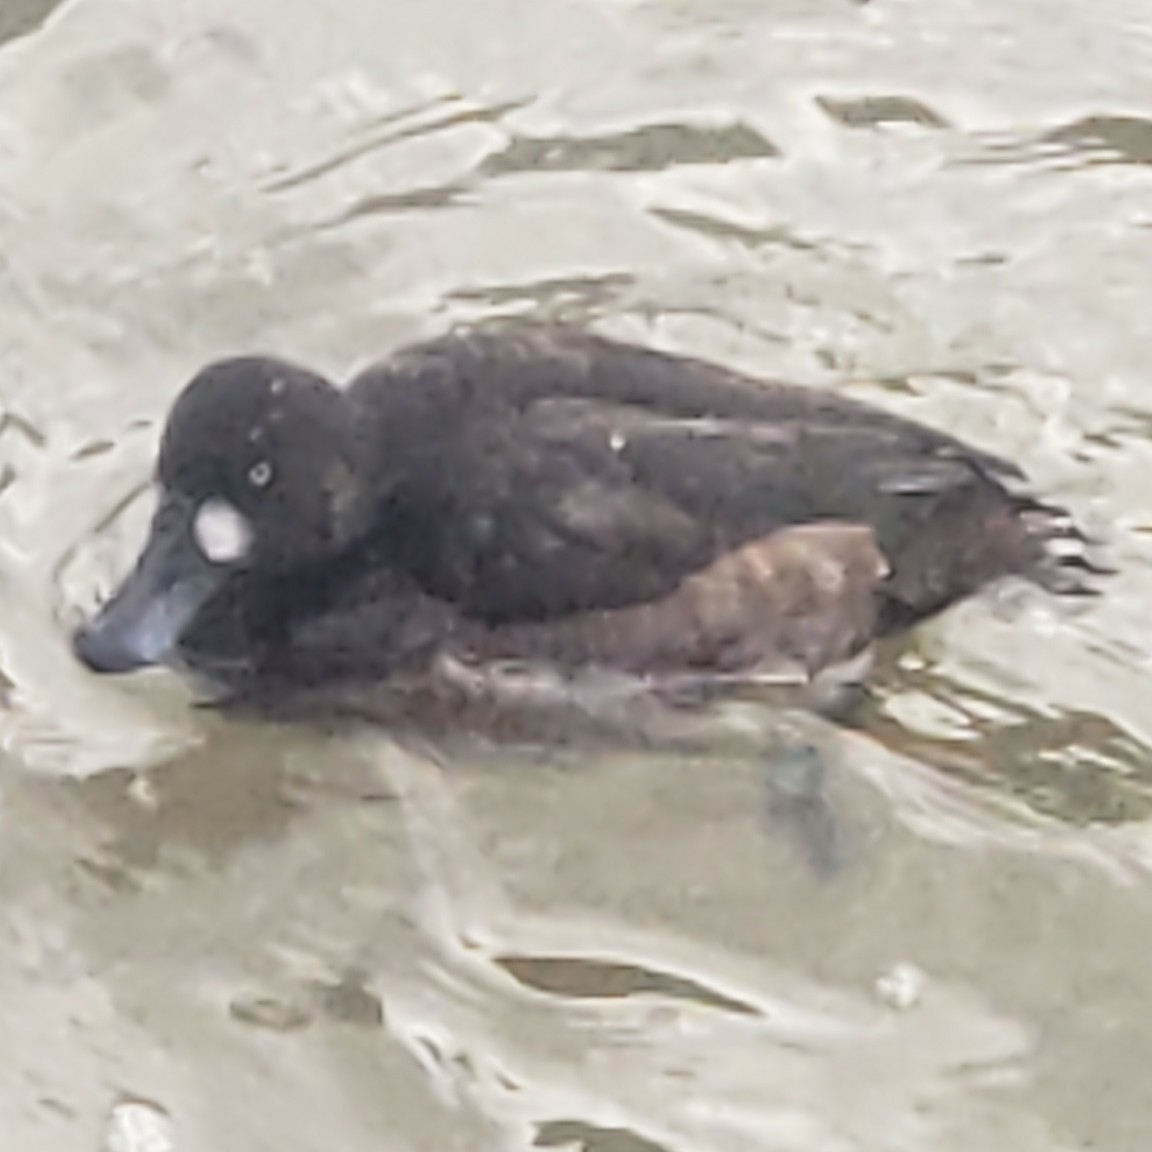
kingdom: Animalia
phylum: Chordata
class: Aves
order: Anseriformes
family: Anatidae
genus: Aythya
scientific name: Aythya marila
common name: Greater scaup
